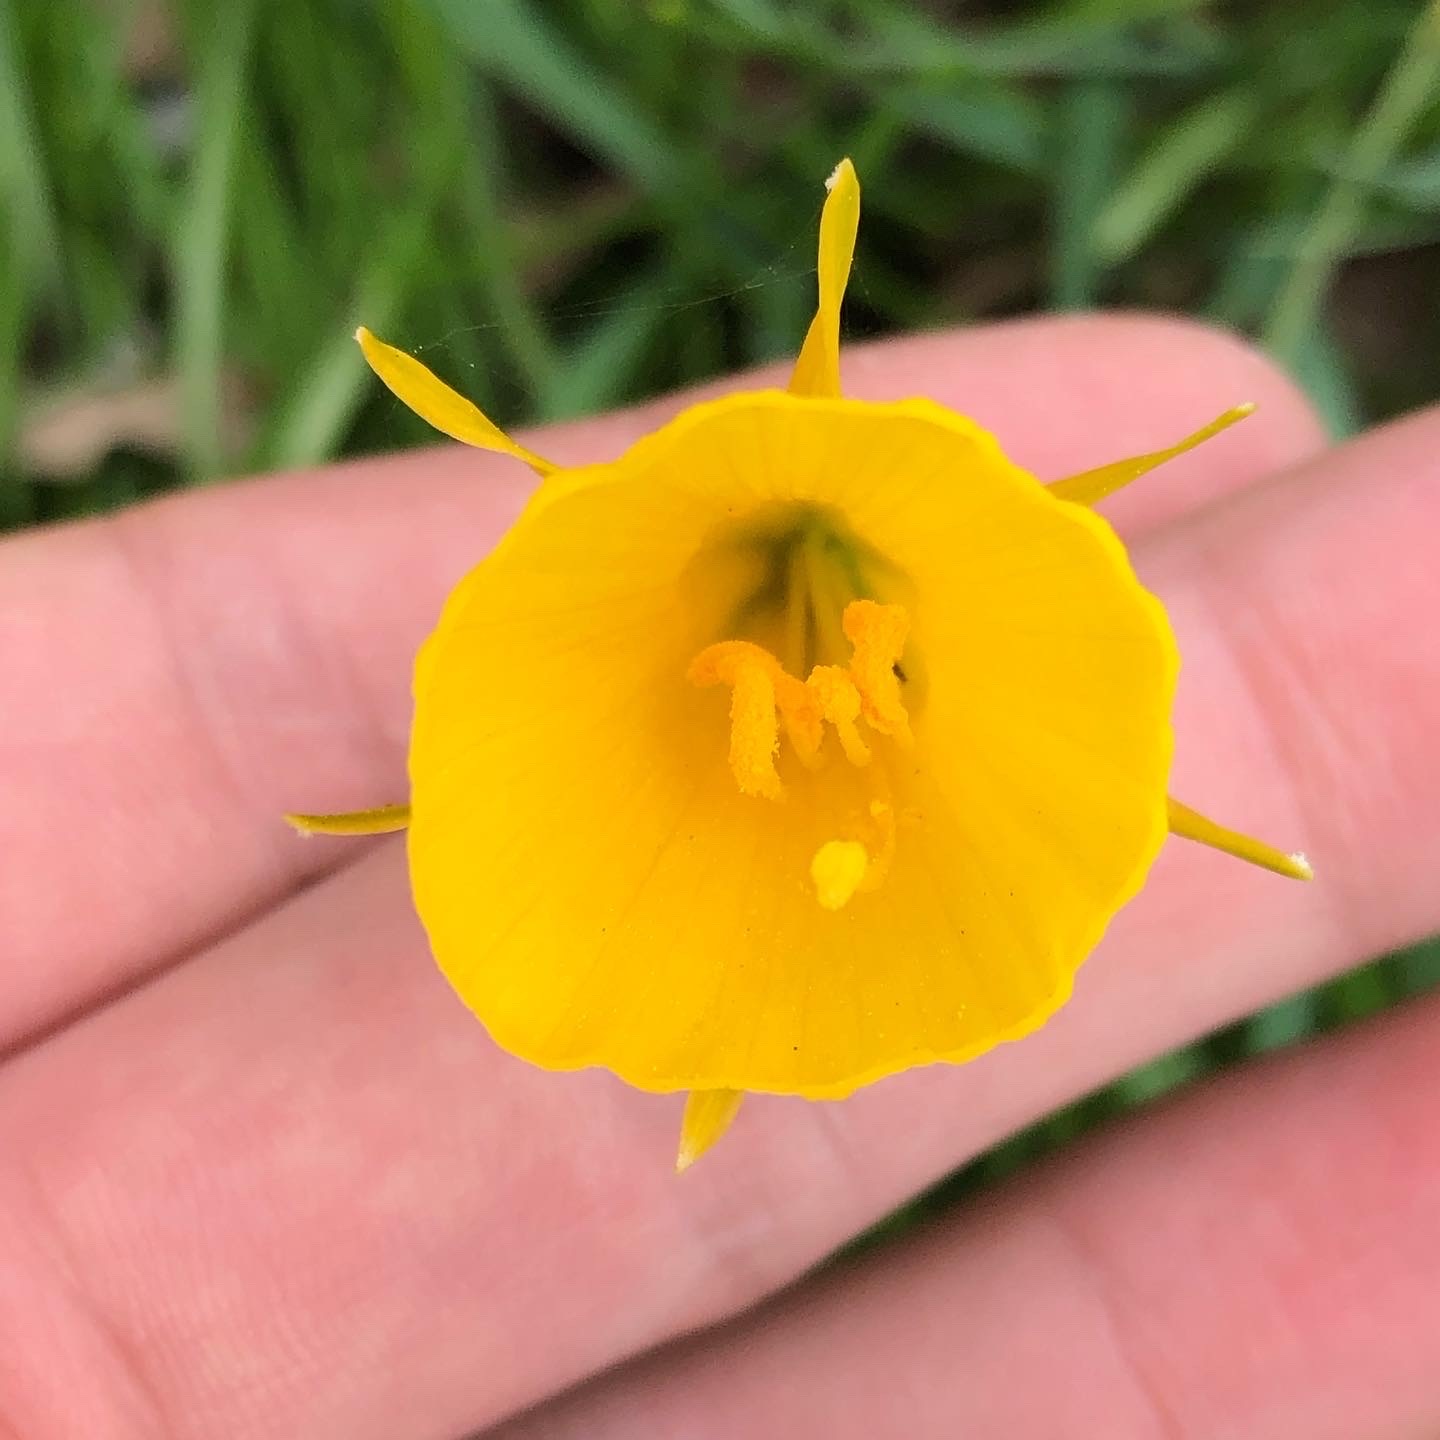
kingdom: Plantae
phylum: Tracheophyta
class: Liliopsida
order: Asparagales
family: Amaryllidaceae
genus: Narcissus
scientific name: Narcissus bulbocodium
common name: Hoop-petticoat daffodil
